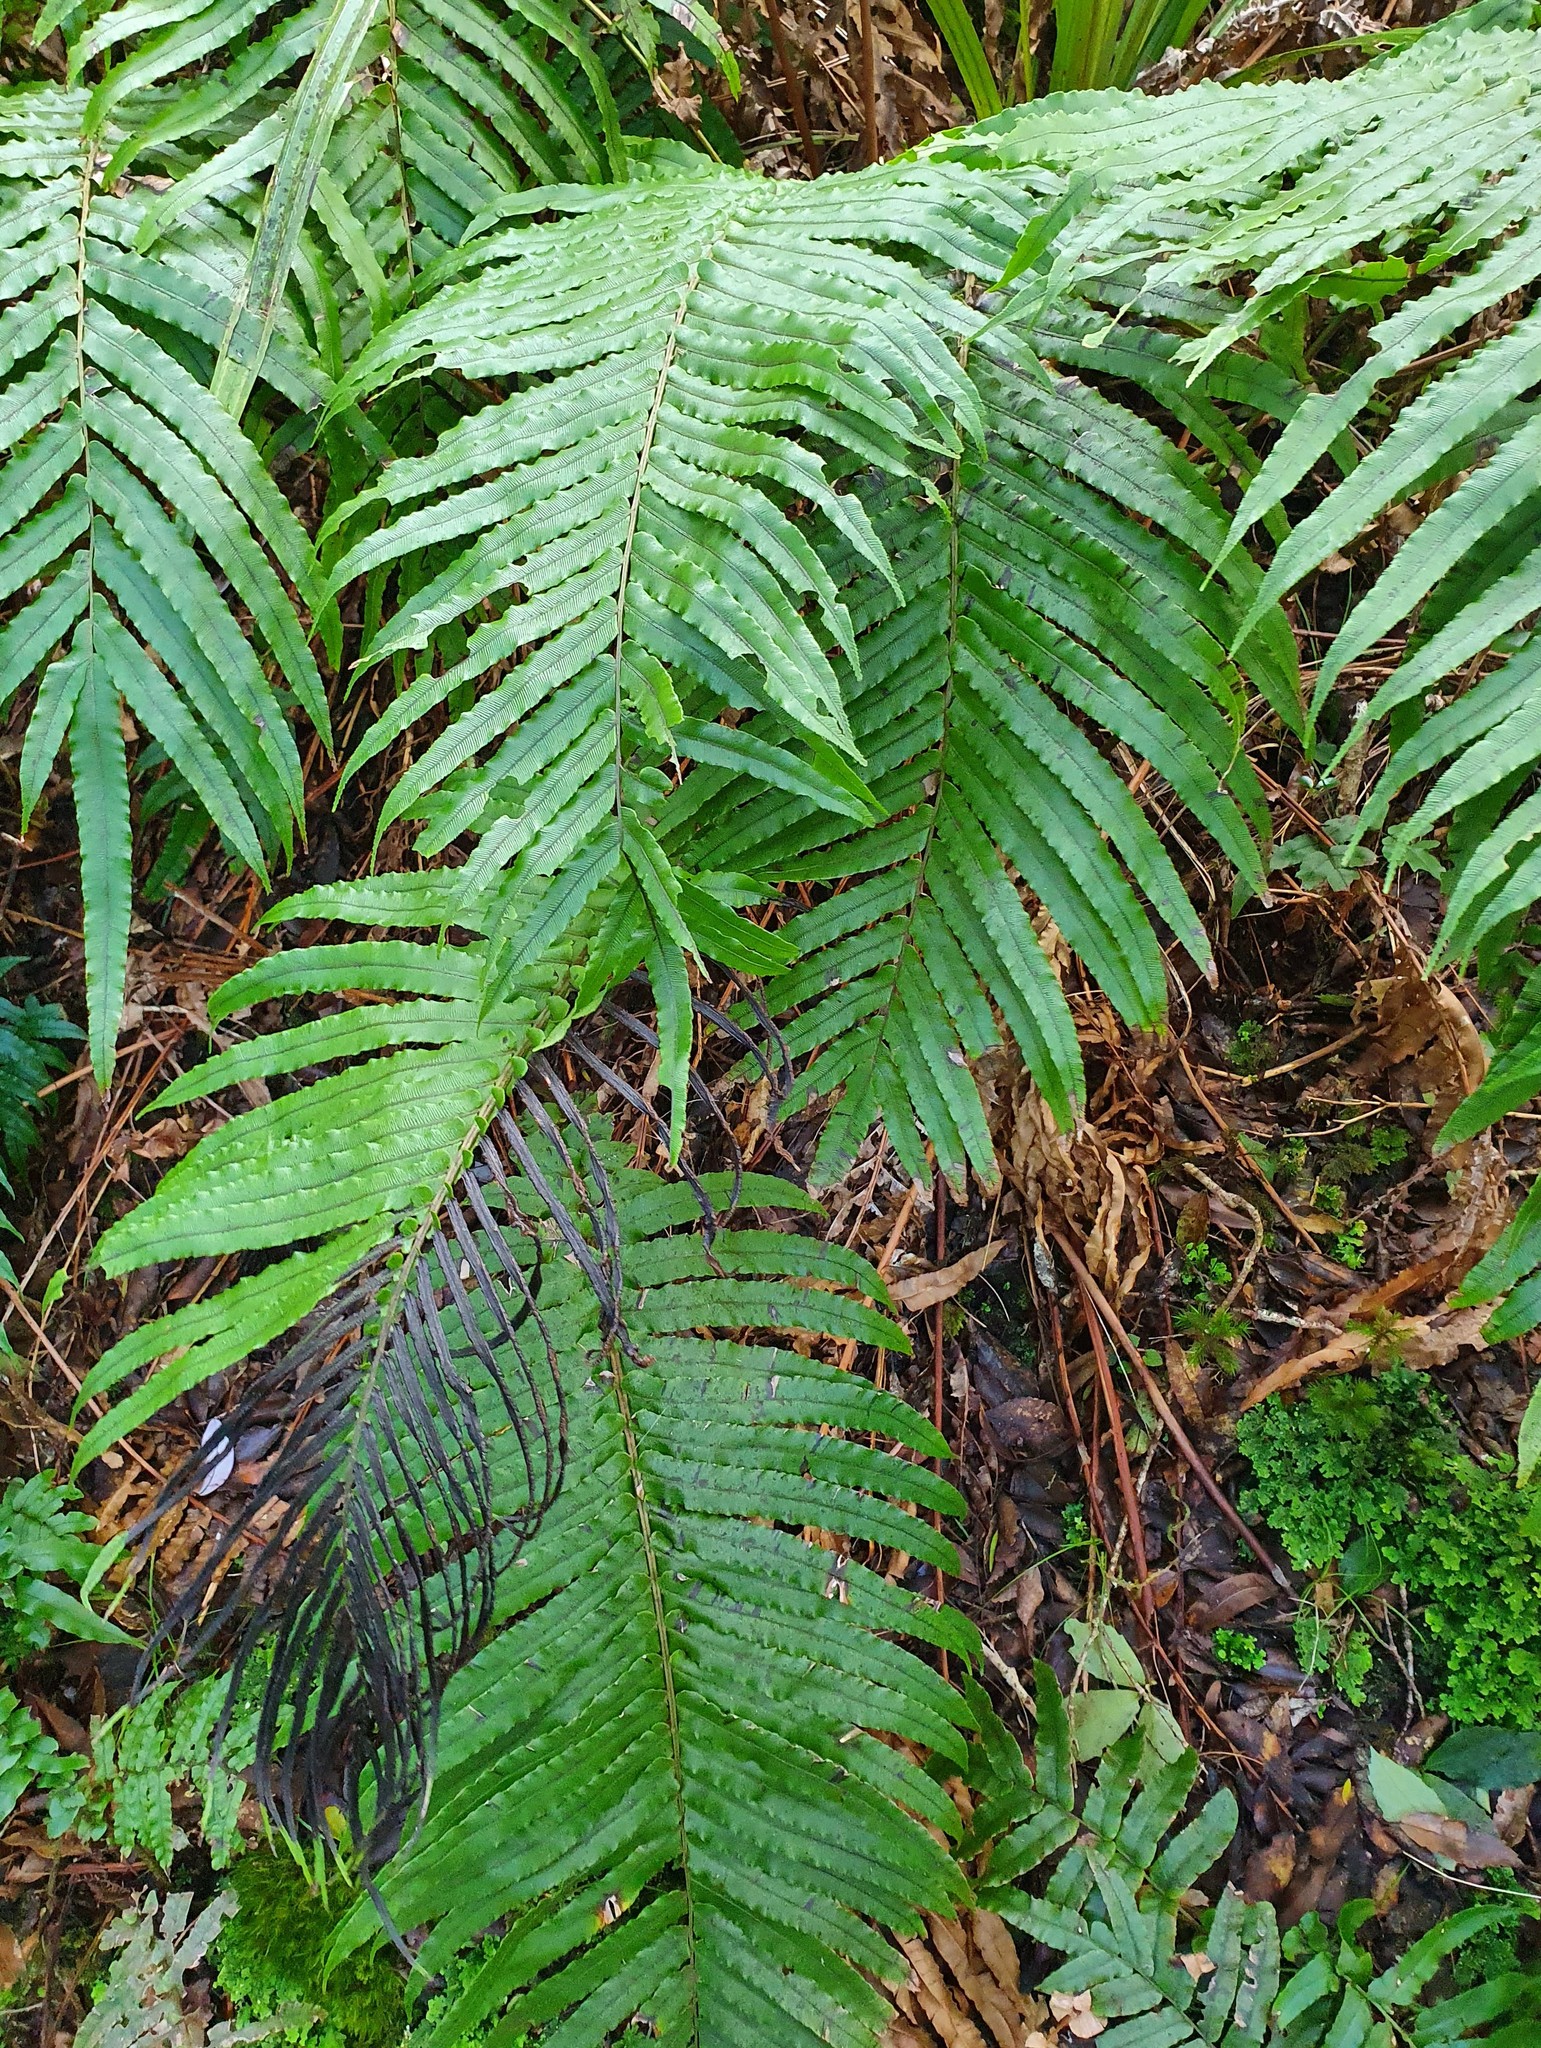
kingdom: Plantae
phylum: Tracheophyta
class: Polypodiopsida
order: Polypodiales
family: Blechnaceae
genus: Parablechnum
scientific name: Parablechnum novae-zelandiae
